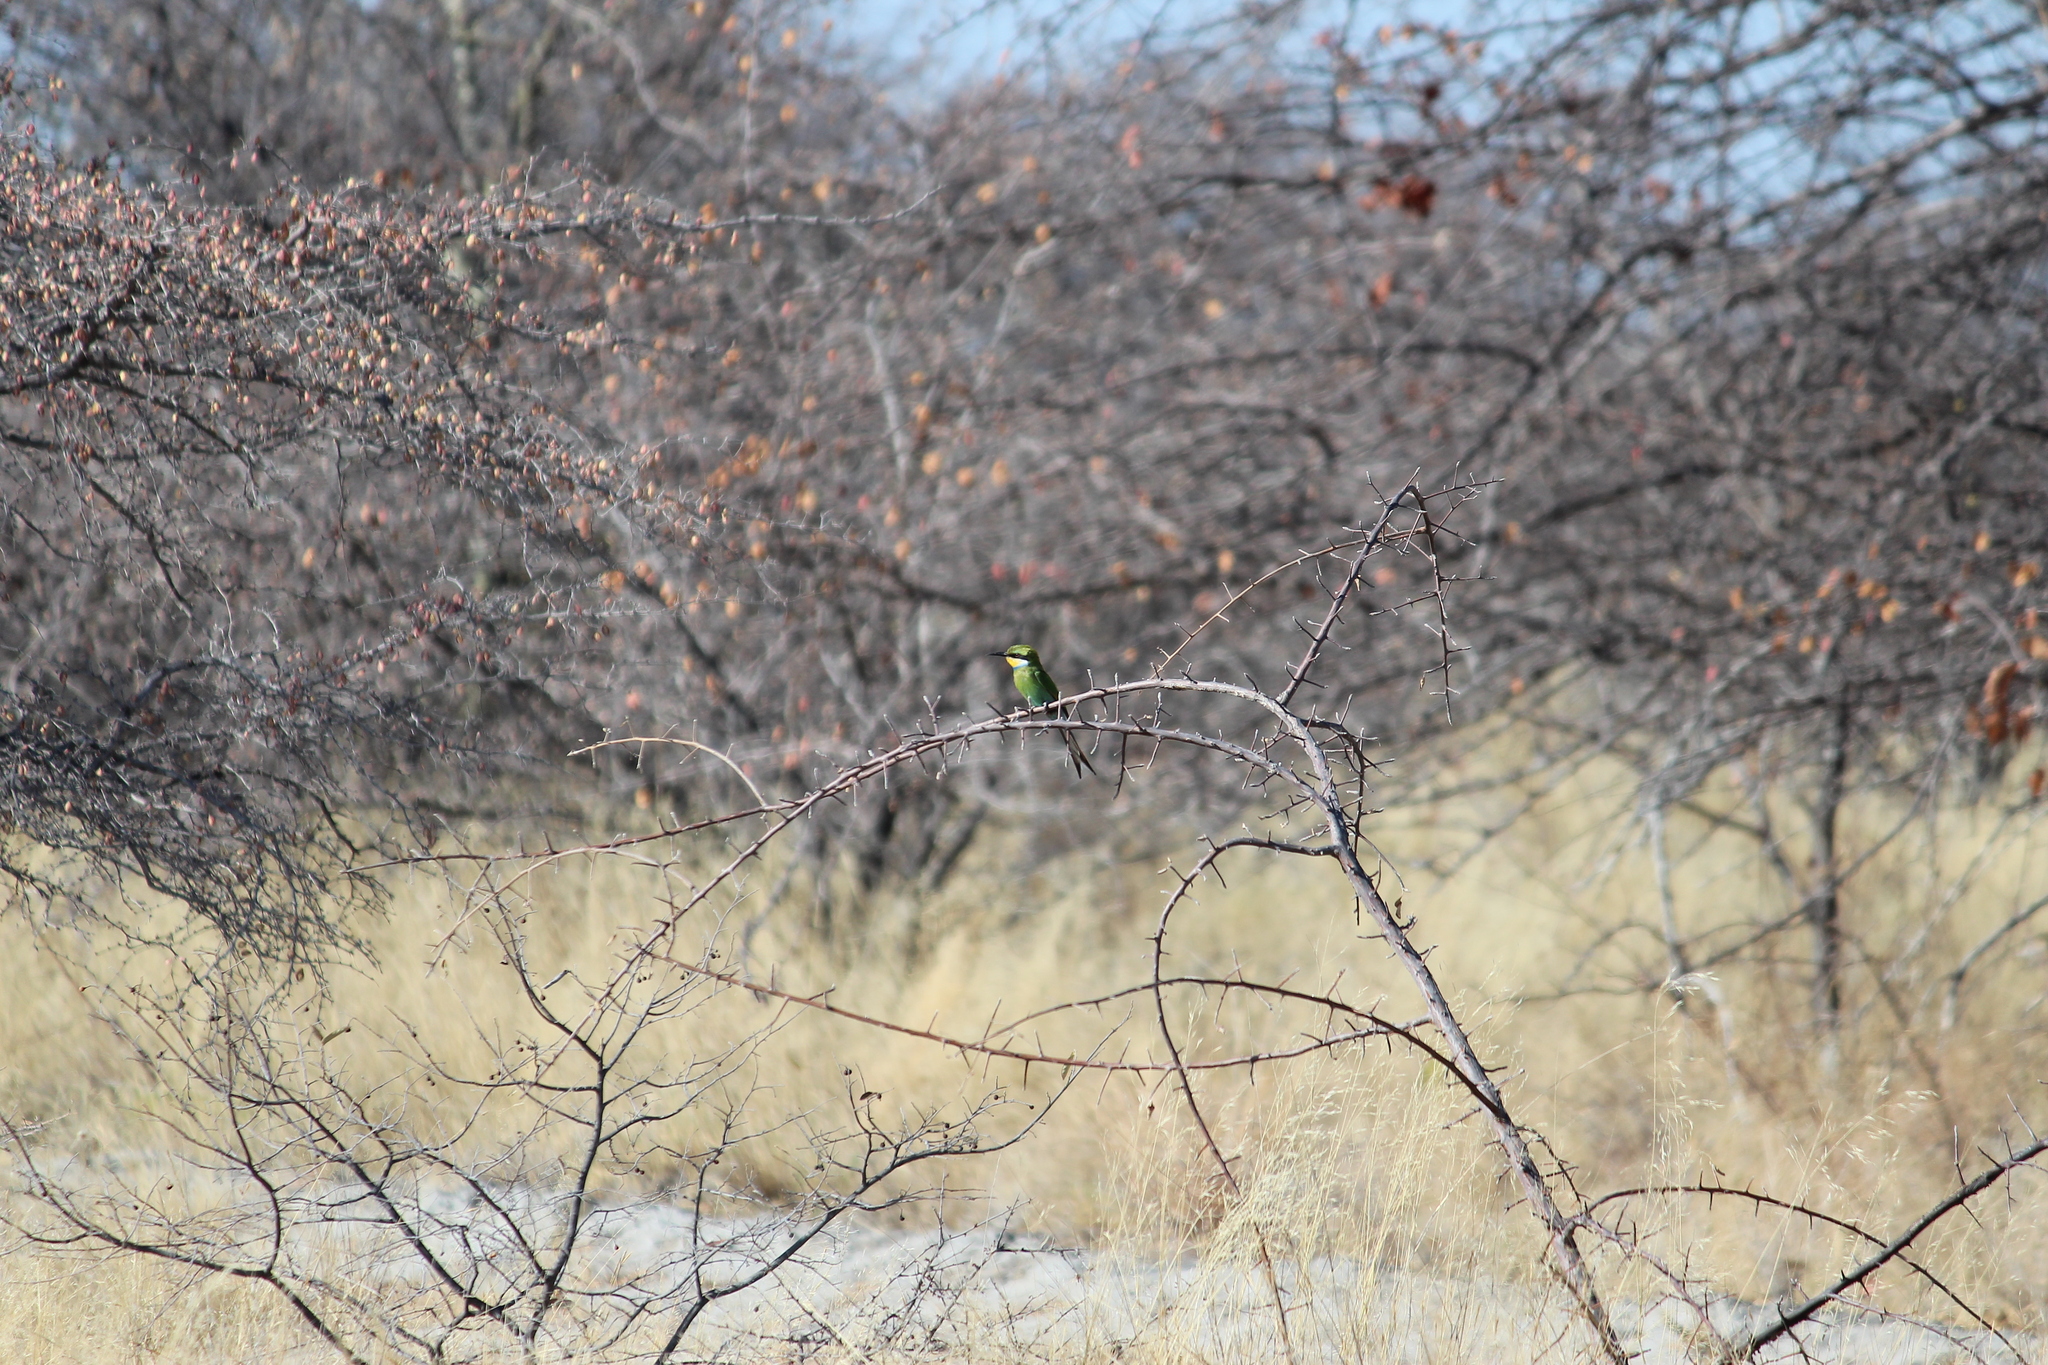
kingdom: Animalia
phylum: Chordata
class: Aves
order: Coraciiformes
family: Meropidae
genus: Merops
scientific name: Merops hirundineus
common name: Swallow-tailed bee-eater
